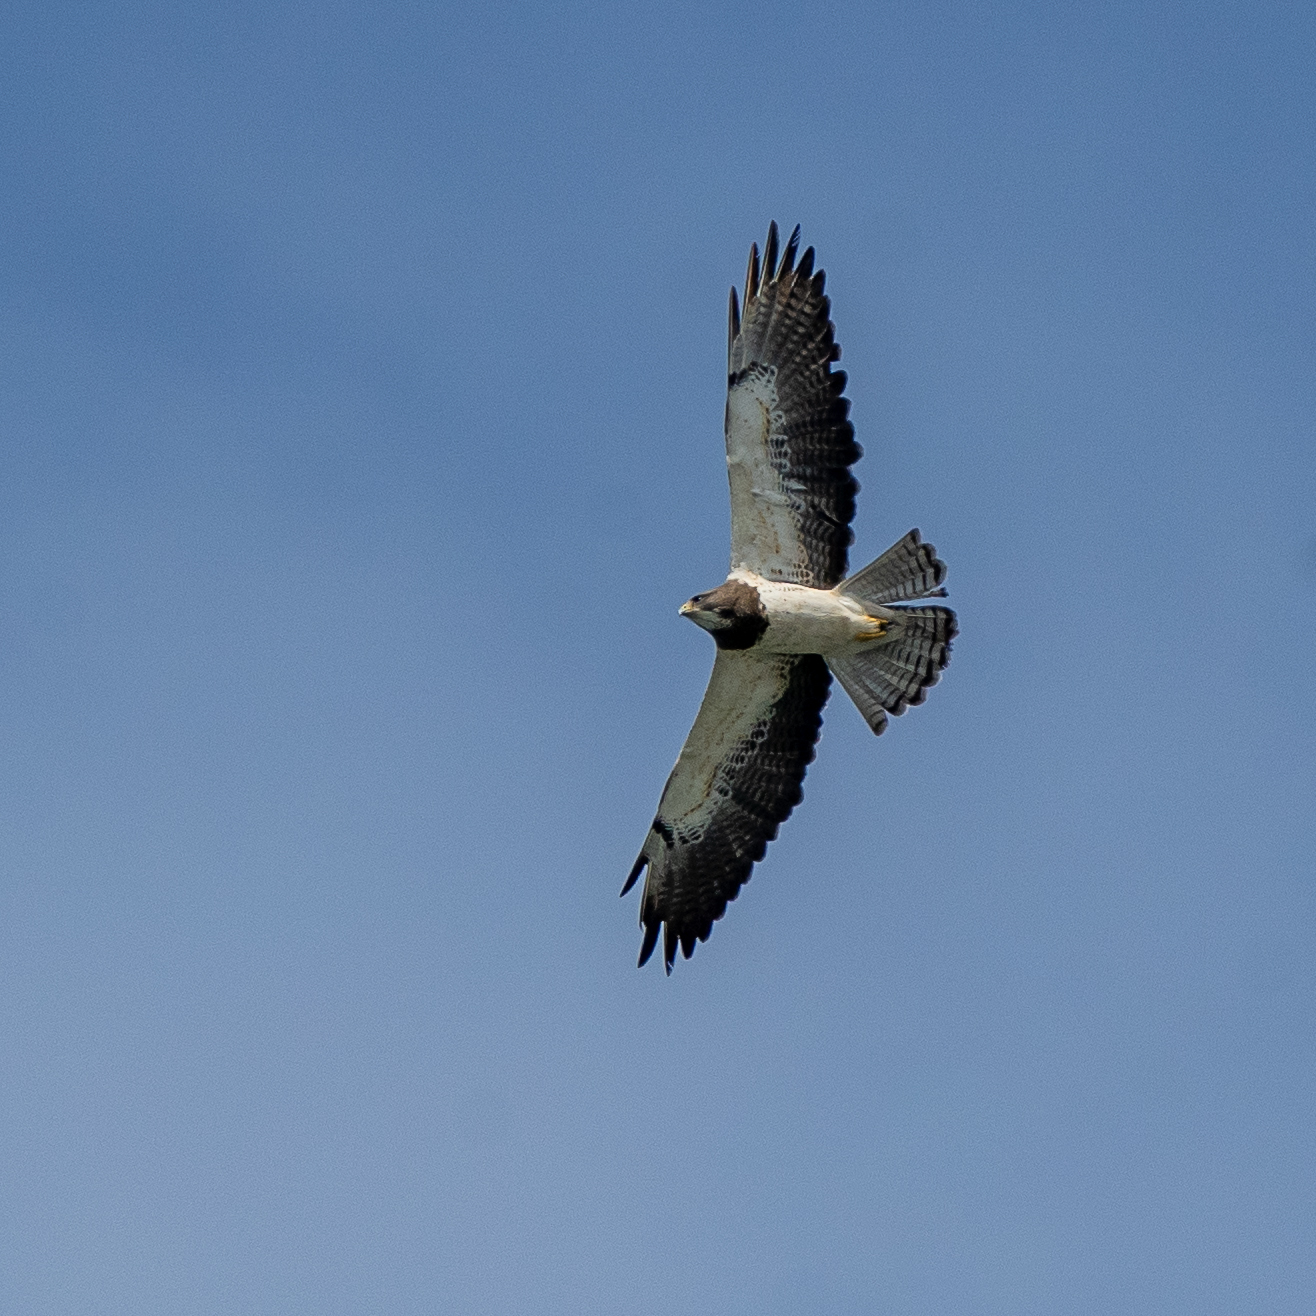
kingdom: Animalia
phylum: Chordata
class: Aves
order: Accipitriformes
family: Accipitridae
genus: Buteo
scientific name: Buteo swainsoni
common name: Swainson's hawk
